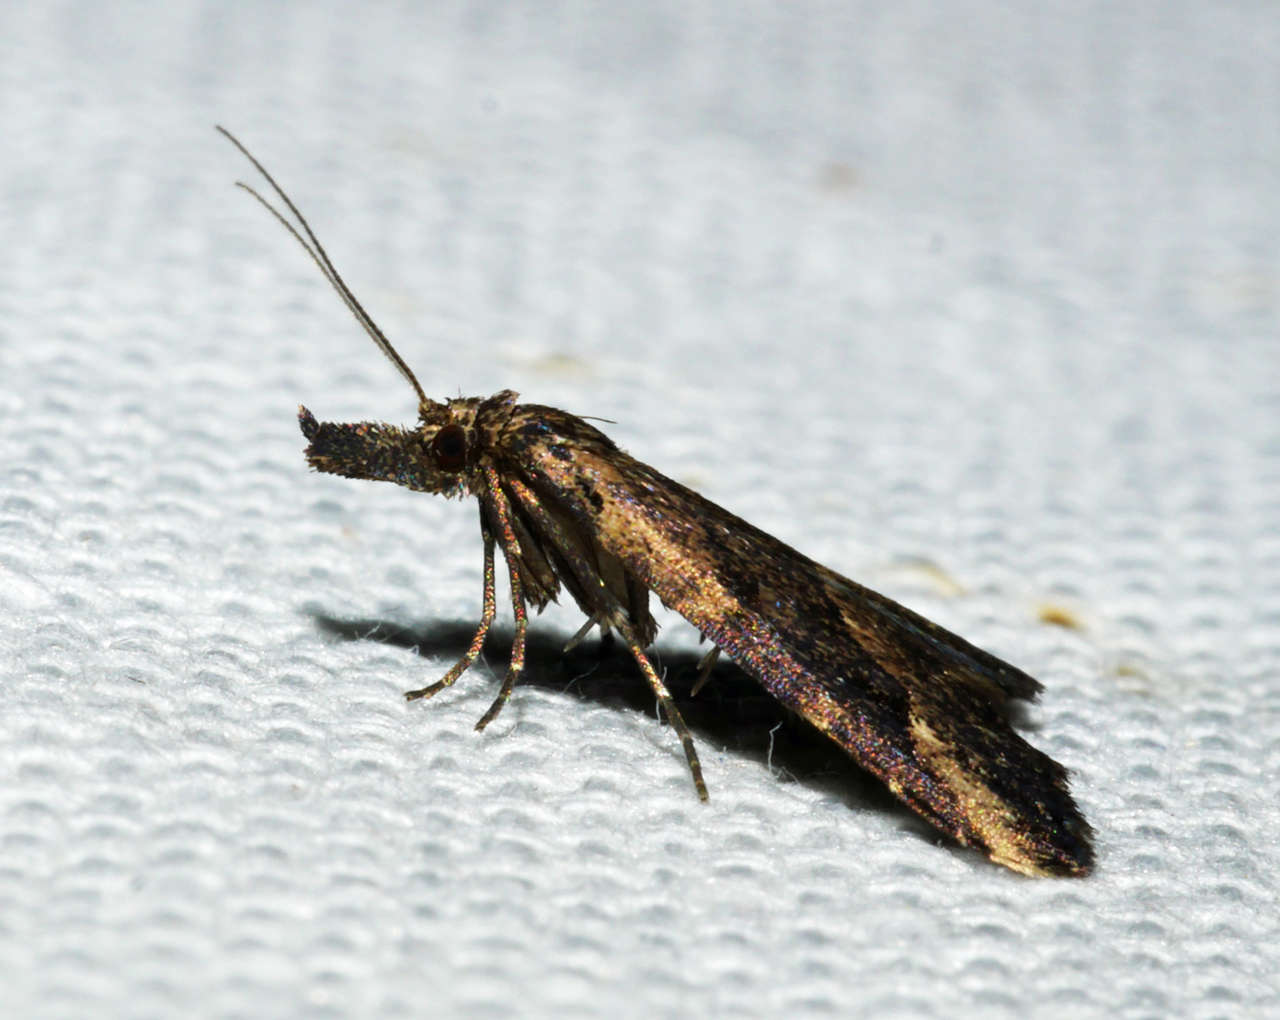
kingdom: Animalia
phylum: Arthropoda
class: Insecta
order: Lepidoptera
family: Erebidae
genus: Schrankia
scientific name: Schrankia capnophanes
